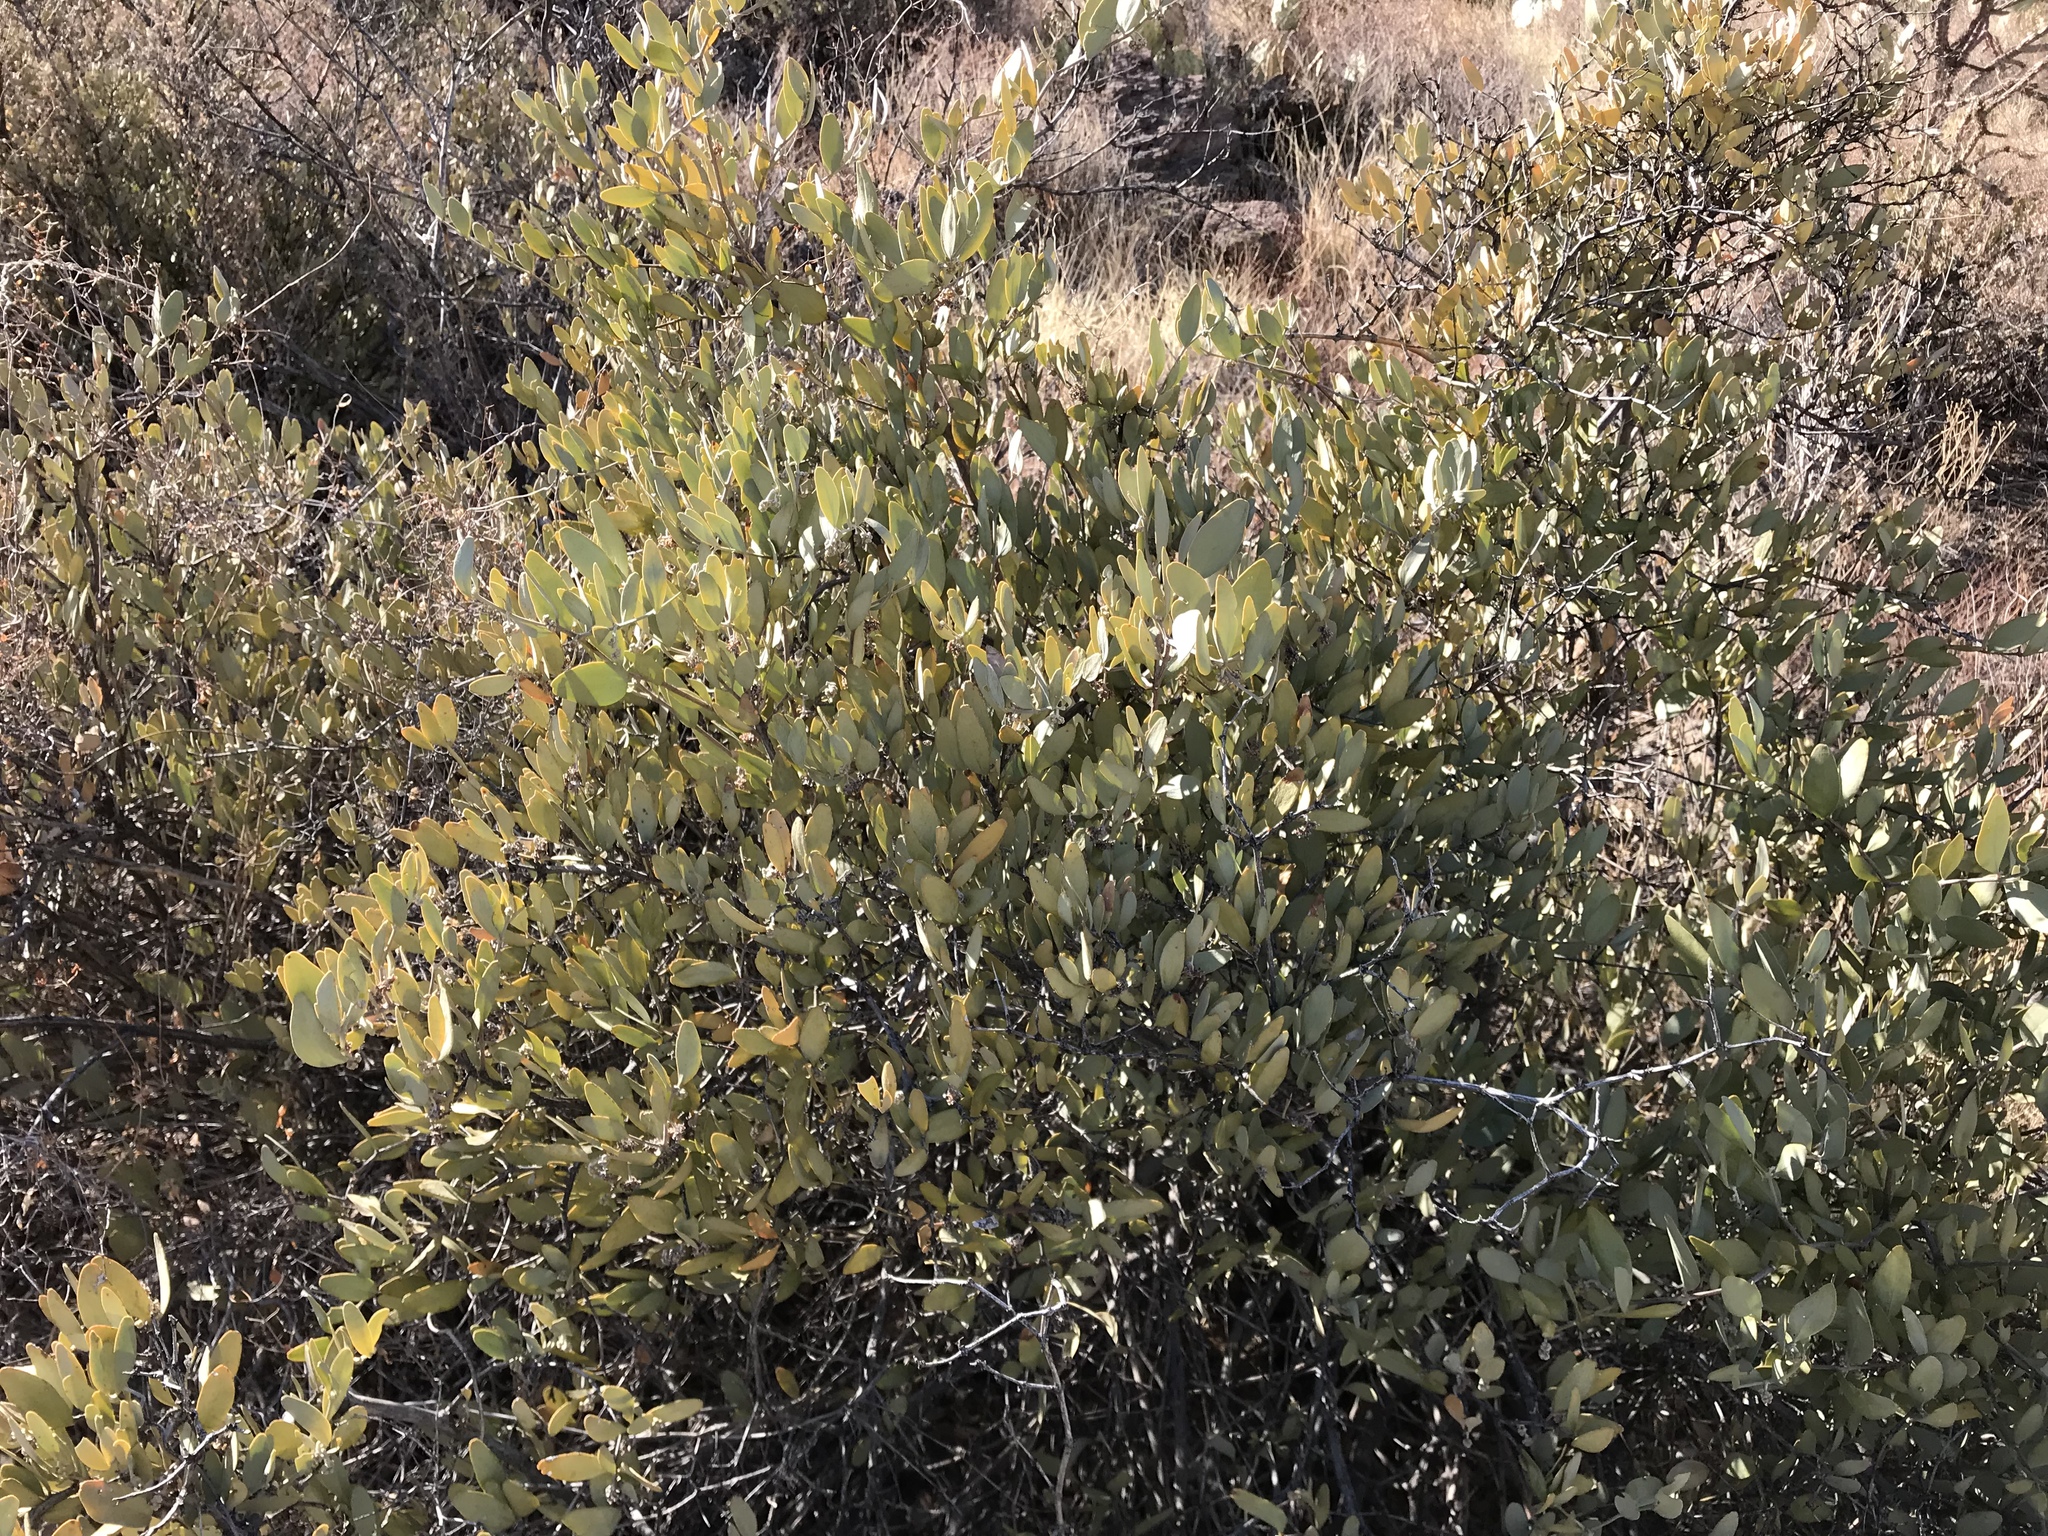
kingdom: Plantae
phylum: Tracheophyta
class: Magnoliopsida
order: Caryophyllales
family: Simmondsiaceae
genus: Simmondsia
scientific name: Simmondsia chinensis
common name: Jojoba
